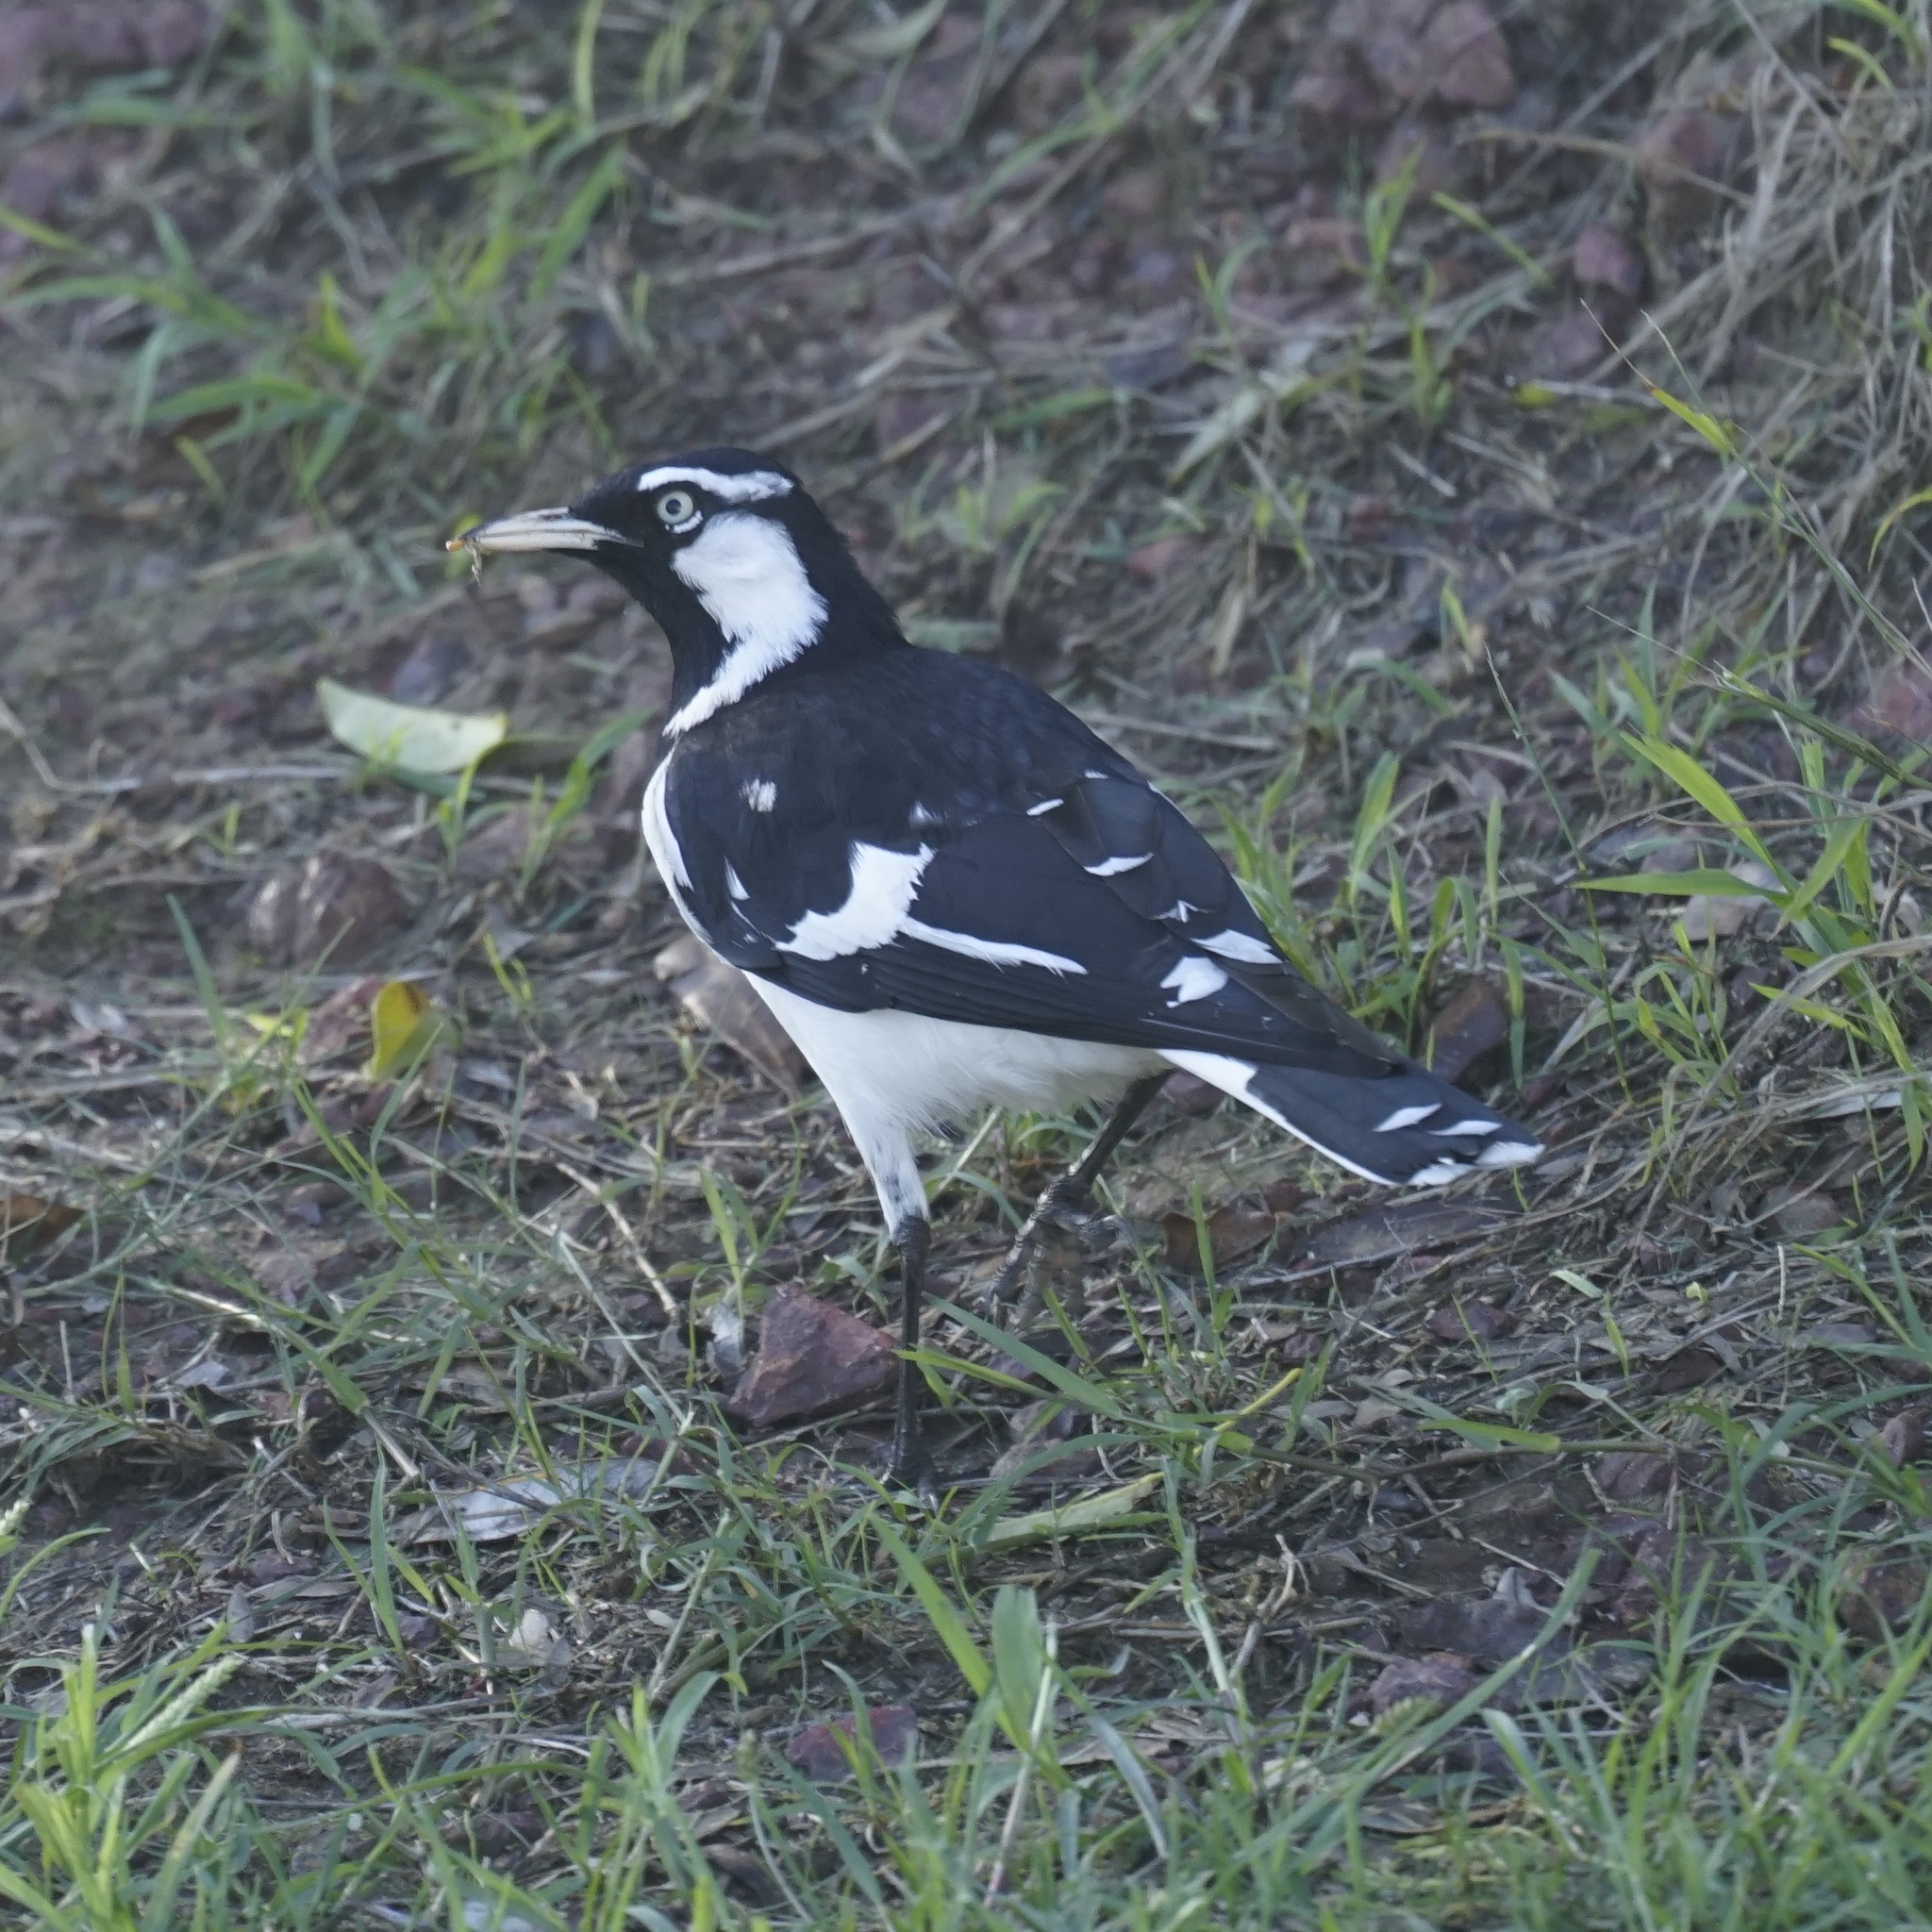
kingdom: Animalia
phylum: Chordata
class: Aves
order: Passeriformes
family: Monarchidae
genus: Grallina
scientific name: Grallina cyanoleuca
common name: Magpie-lark
